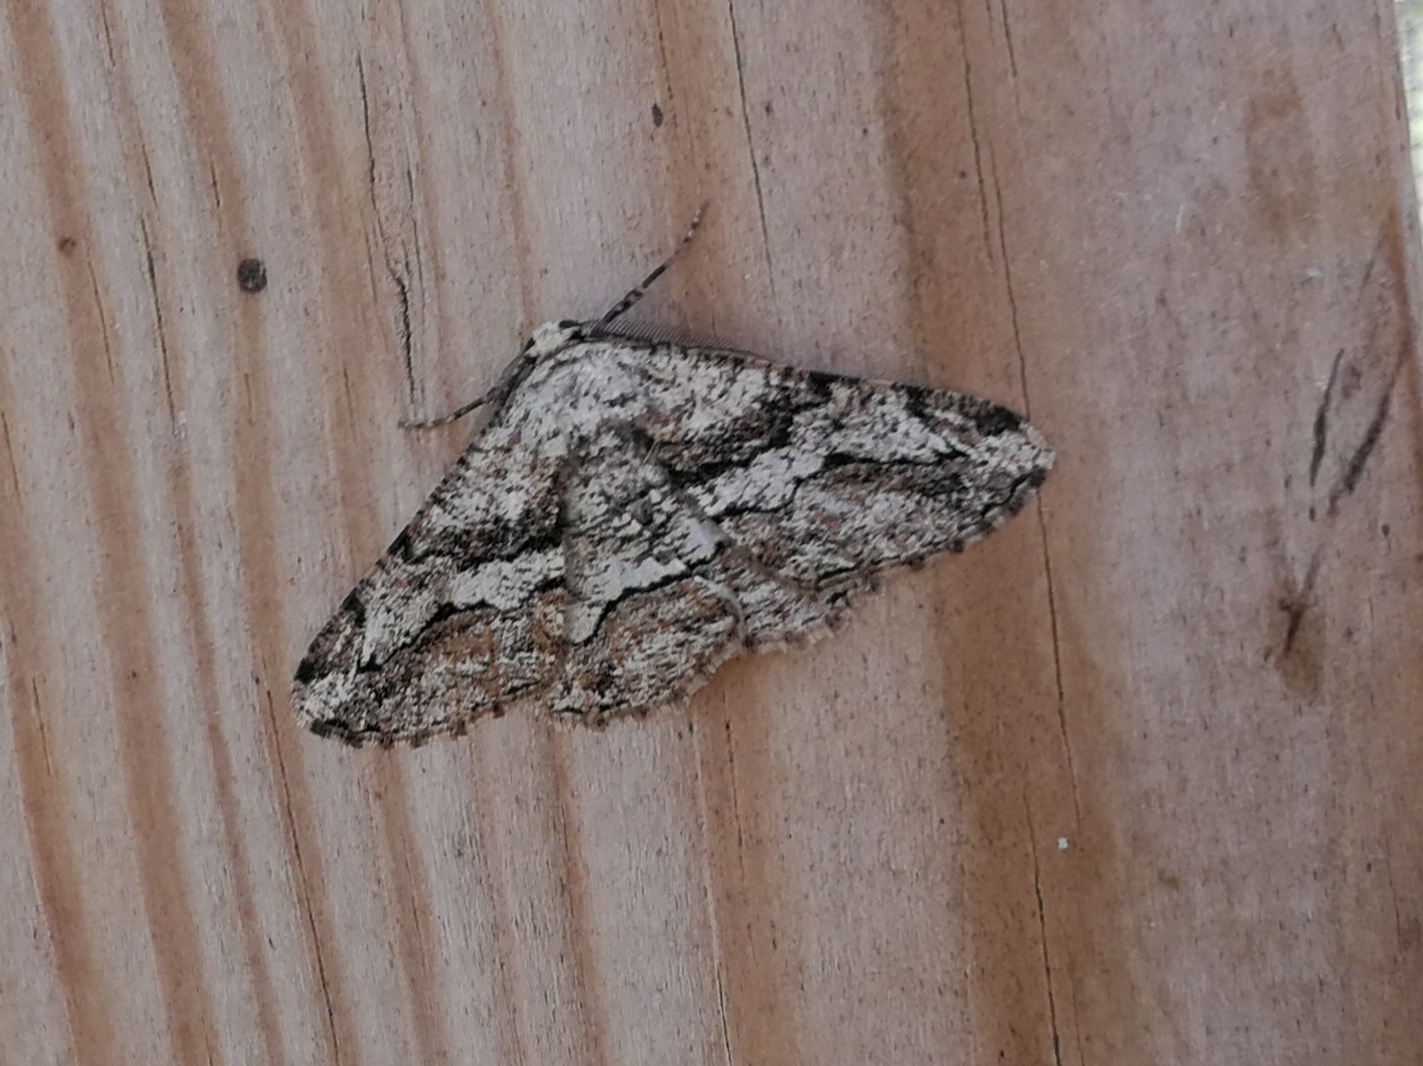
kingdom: Animalia
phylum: Arthropoda
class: Insecta
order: Lepidoptera
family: Geometridae
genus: Synopsia
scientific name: Synopsia sociaria
